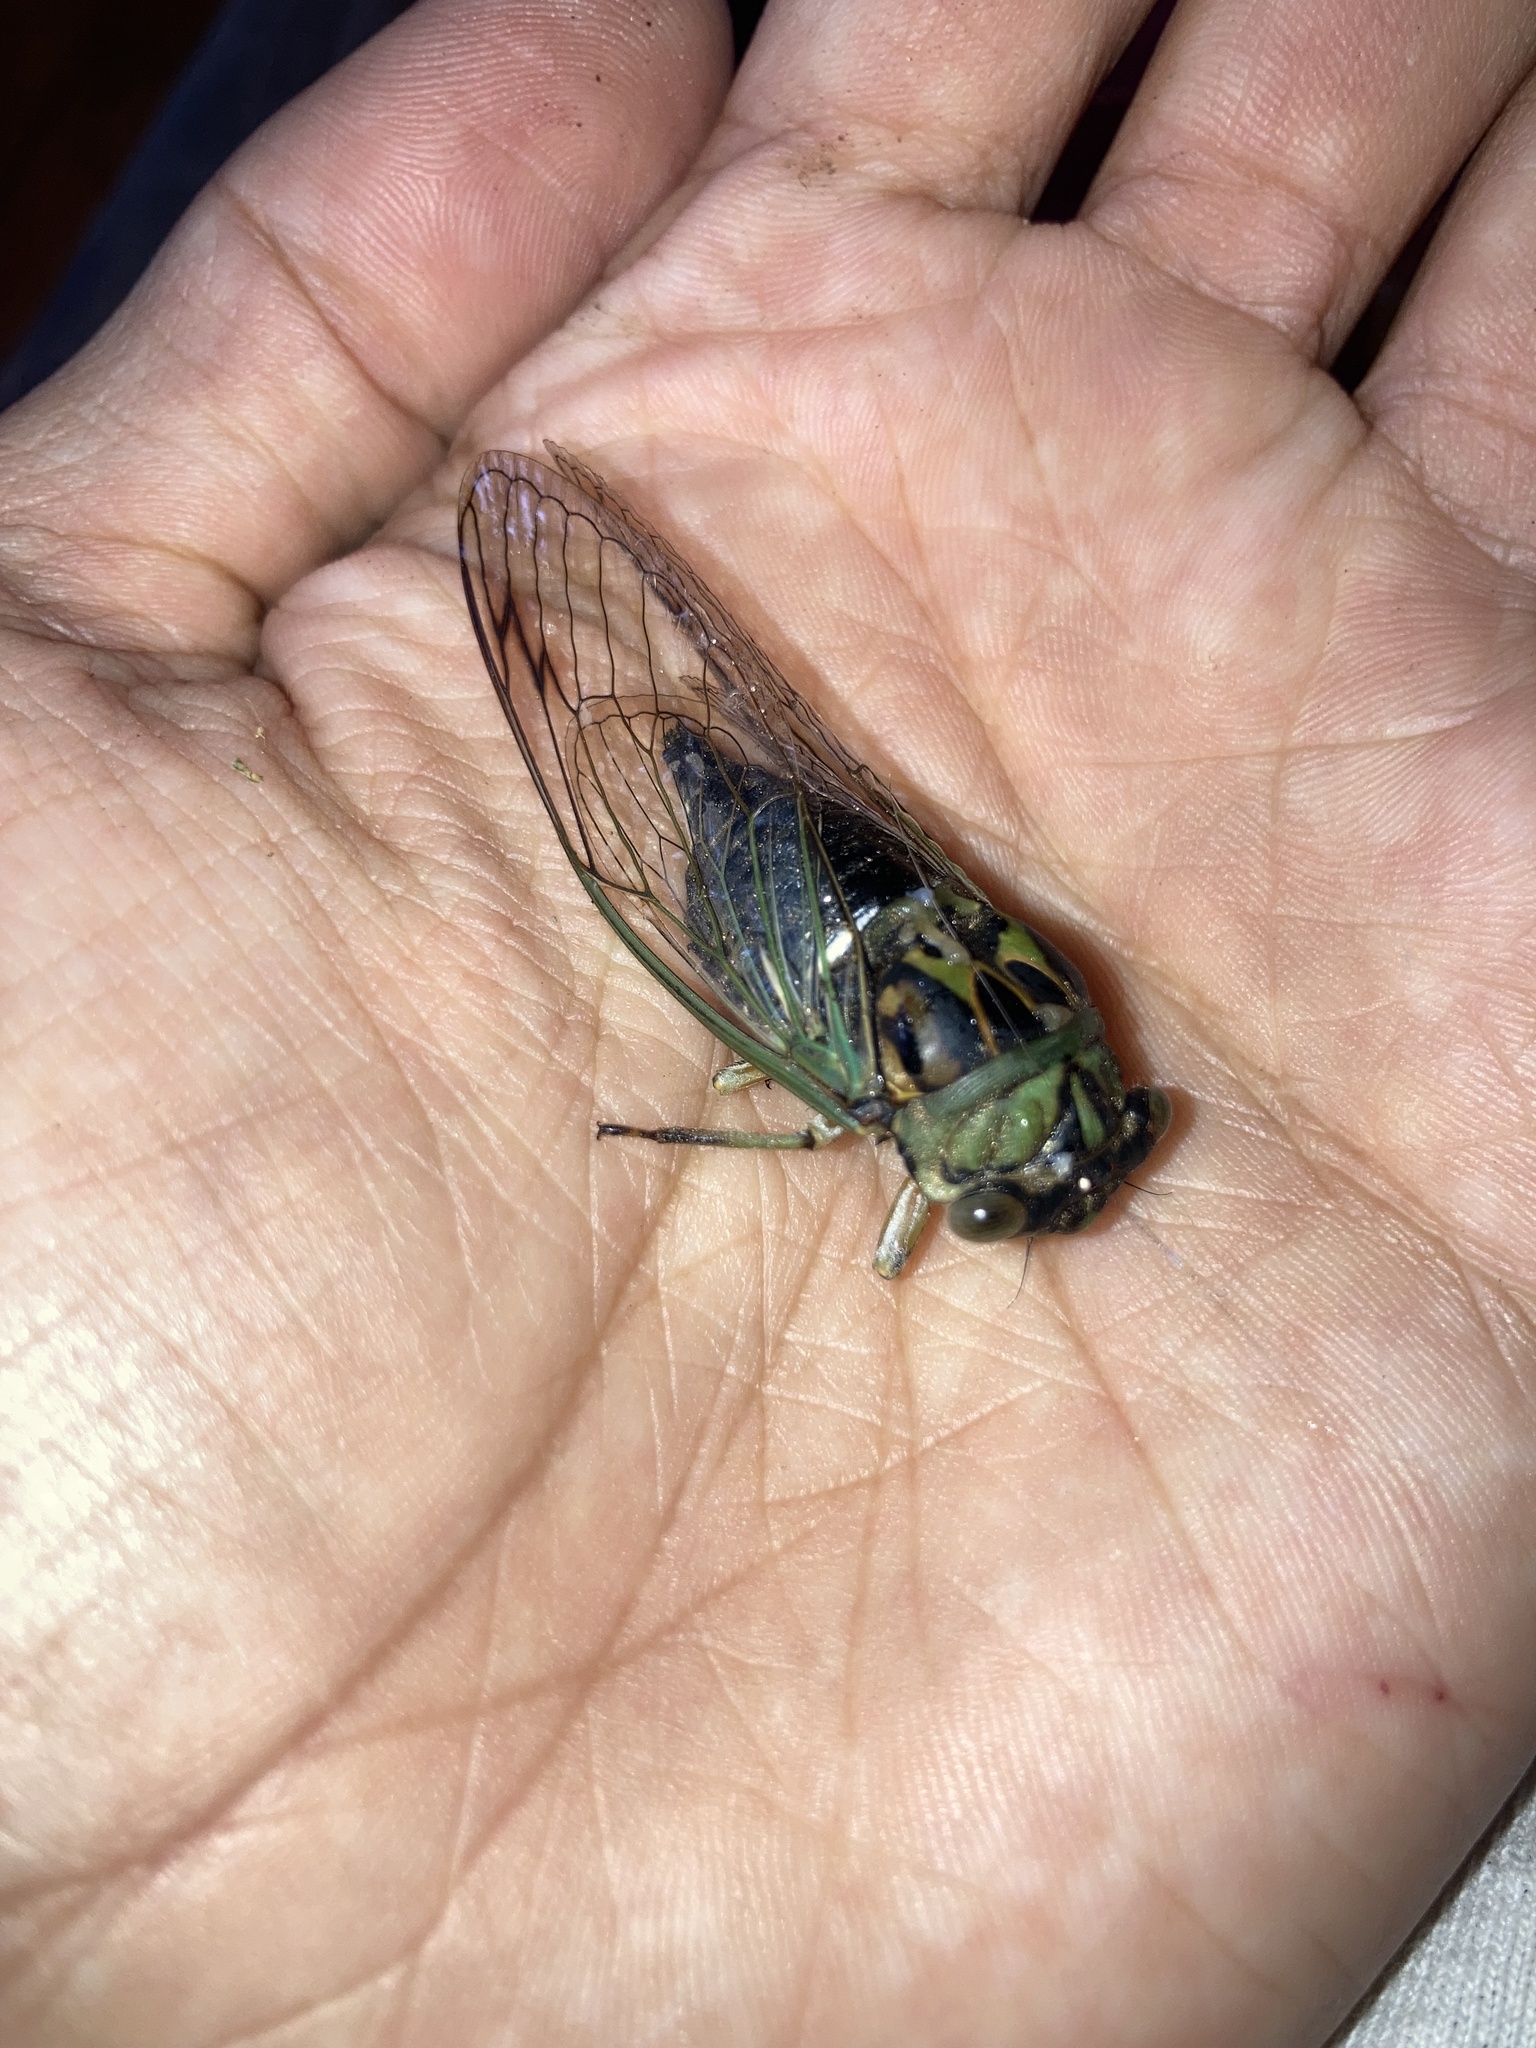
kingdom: Animalia
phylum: Arthropoda
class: Insecta
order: Hemiptera
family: Cicadidae
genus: Neotibicen
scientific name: Neotibicen linnei
